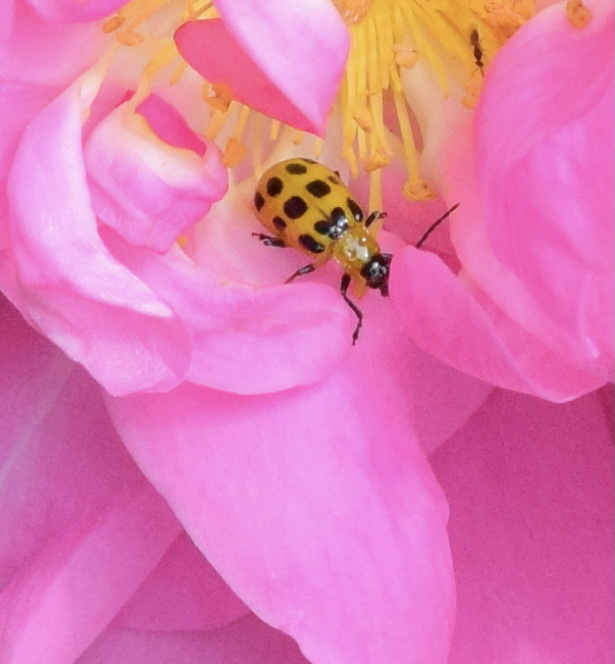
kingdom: Animalia
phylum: Arthropoda
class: Insecta
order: Coleoptera
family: Chrysomelidae
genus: Diabrotica
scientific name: Diabrotica undecimpunctata
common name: Spotted cucumber beetle
